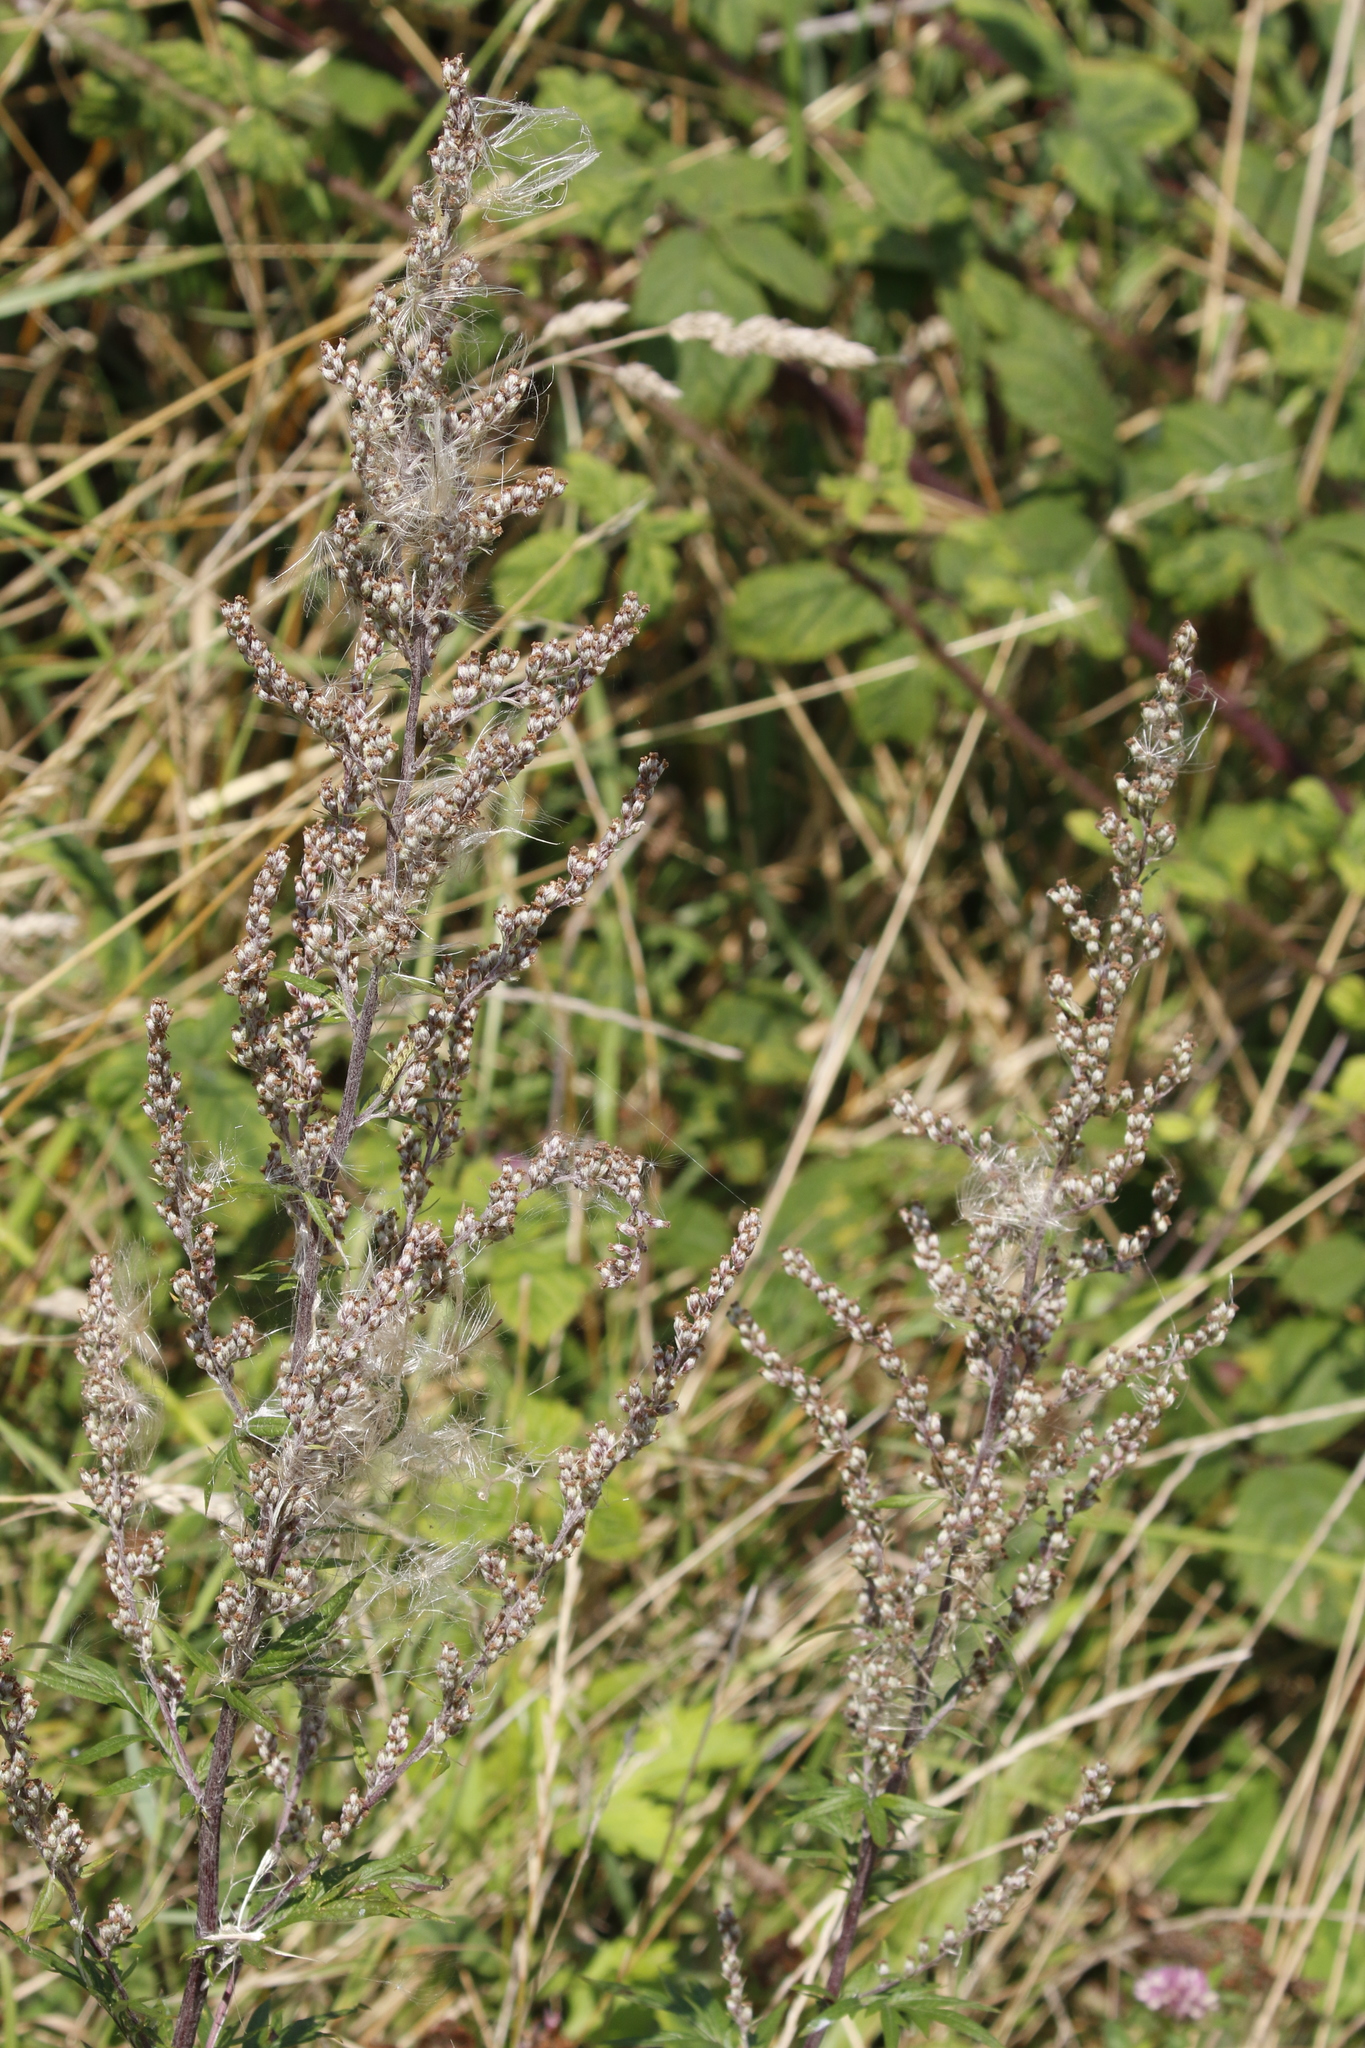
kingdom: Plantae
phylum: Tracheophyta
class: Magnoliopsida
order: Asterales
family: Asteraceae
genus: Artemisia
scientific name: Artemisia vulgaris
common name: Mugwort
